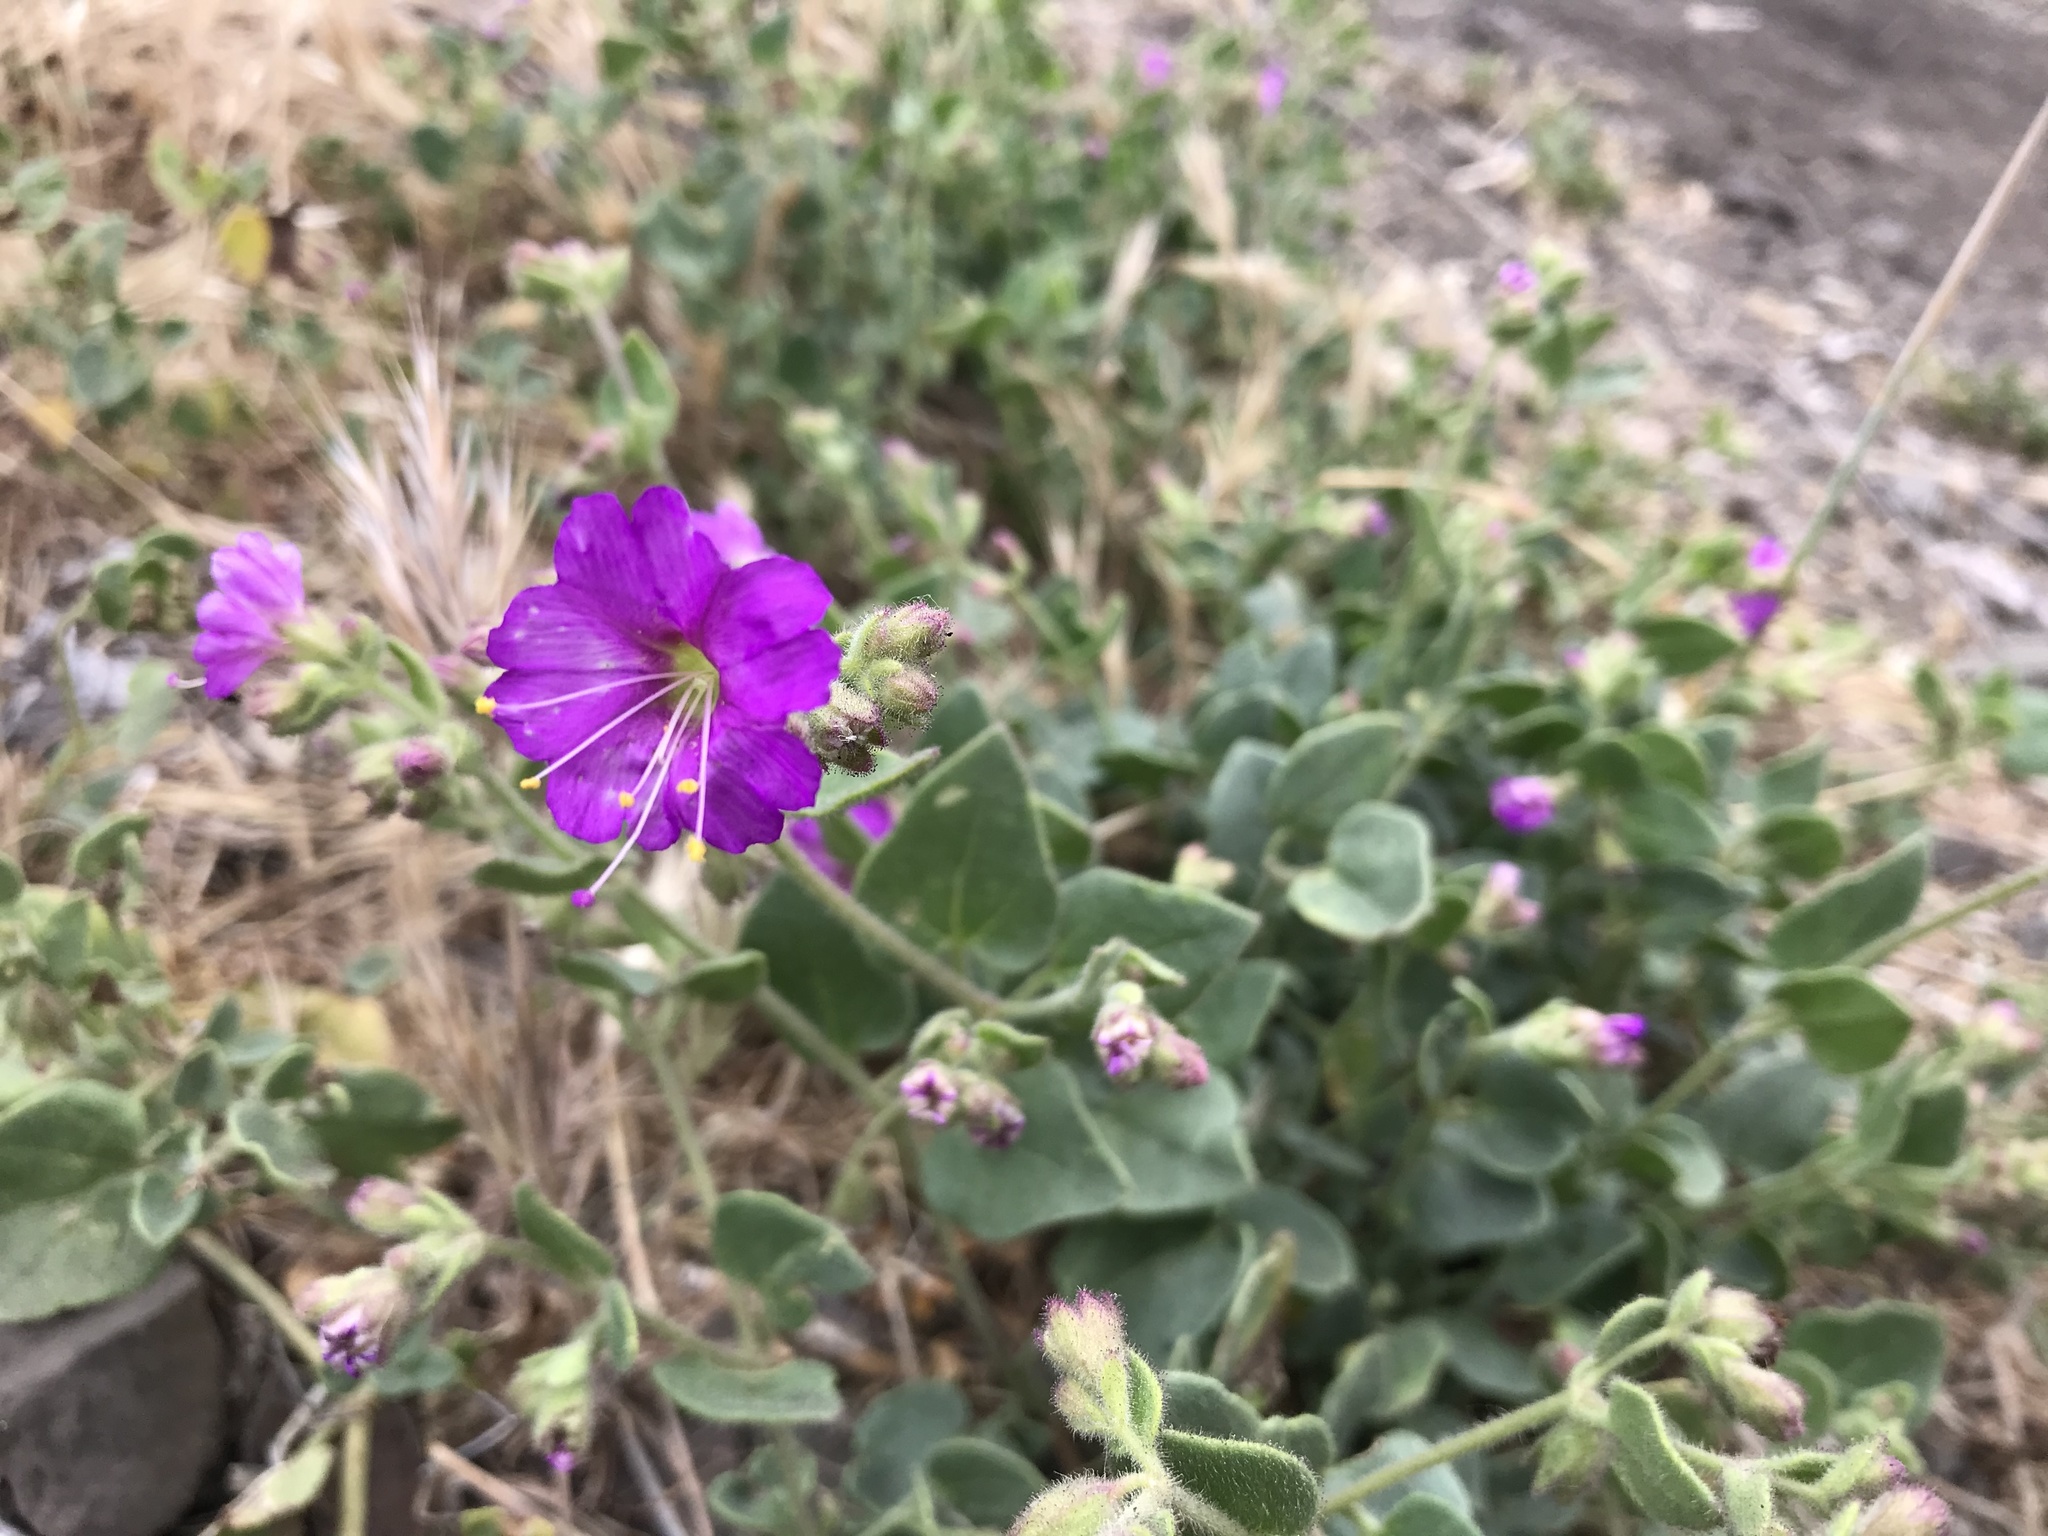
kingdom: Plantae
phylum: Tracheophyta
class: Magnoliopsida
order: Caryophyllales
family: Nyctaginaceae
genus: Mirabilis
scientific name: Mirabilis laevis
